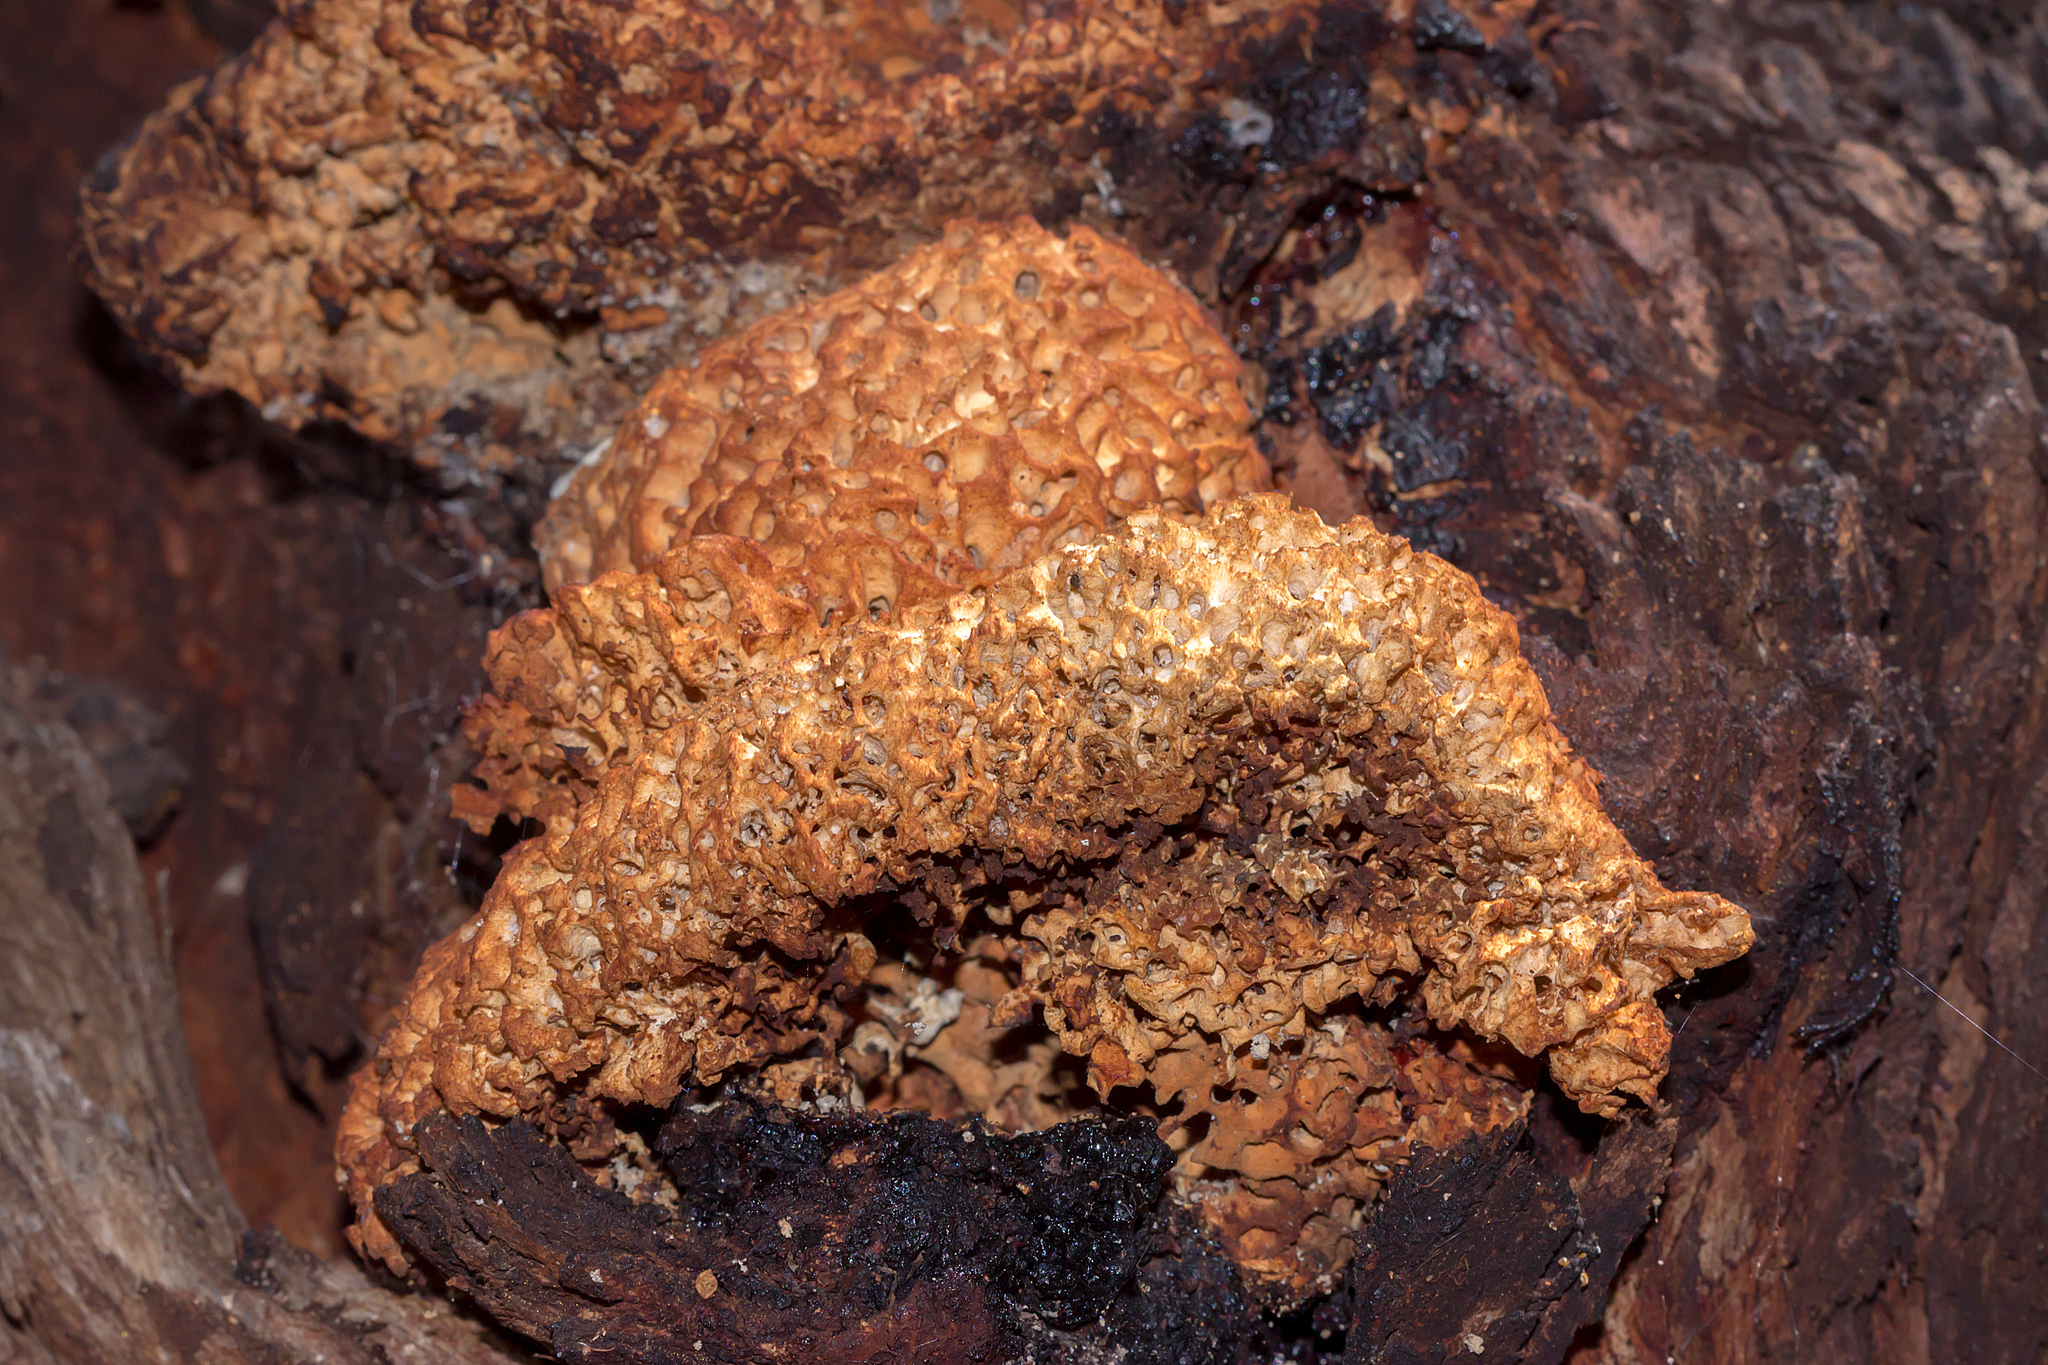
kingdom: Fungi
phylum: Basidiomycota
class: Agaricomycetes
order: Polyporales
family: Laetiporaceae
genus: Laetiporus
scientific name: Laetiporus portentosus
